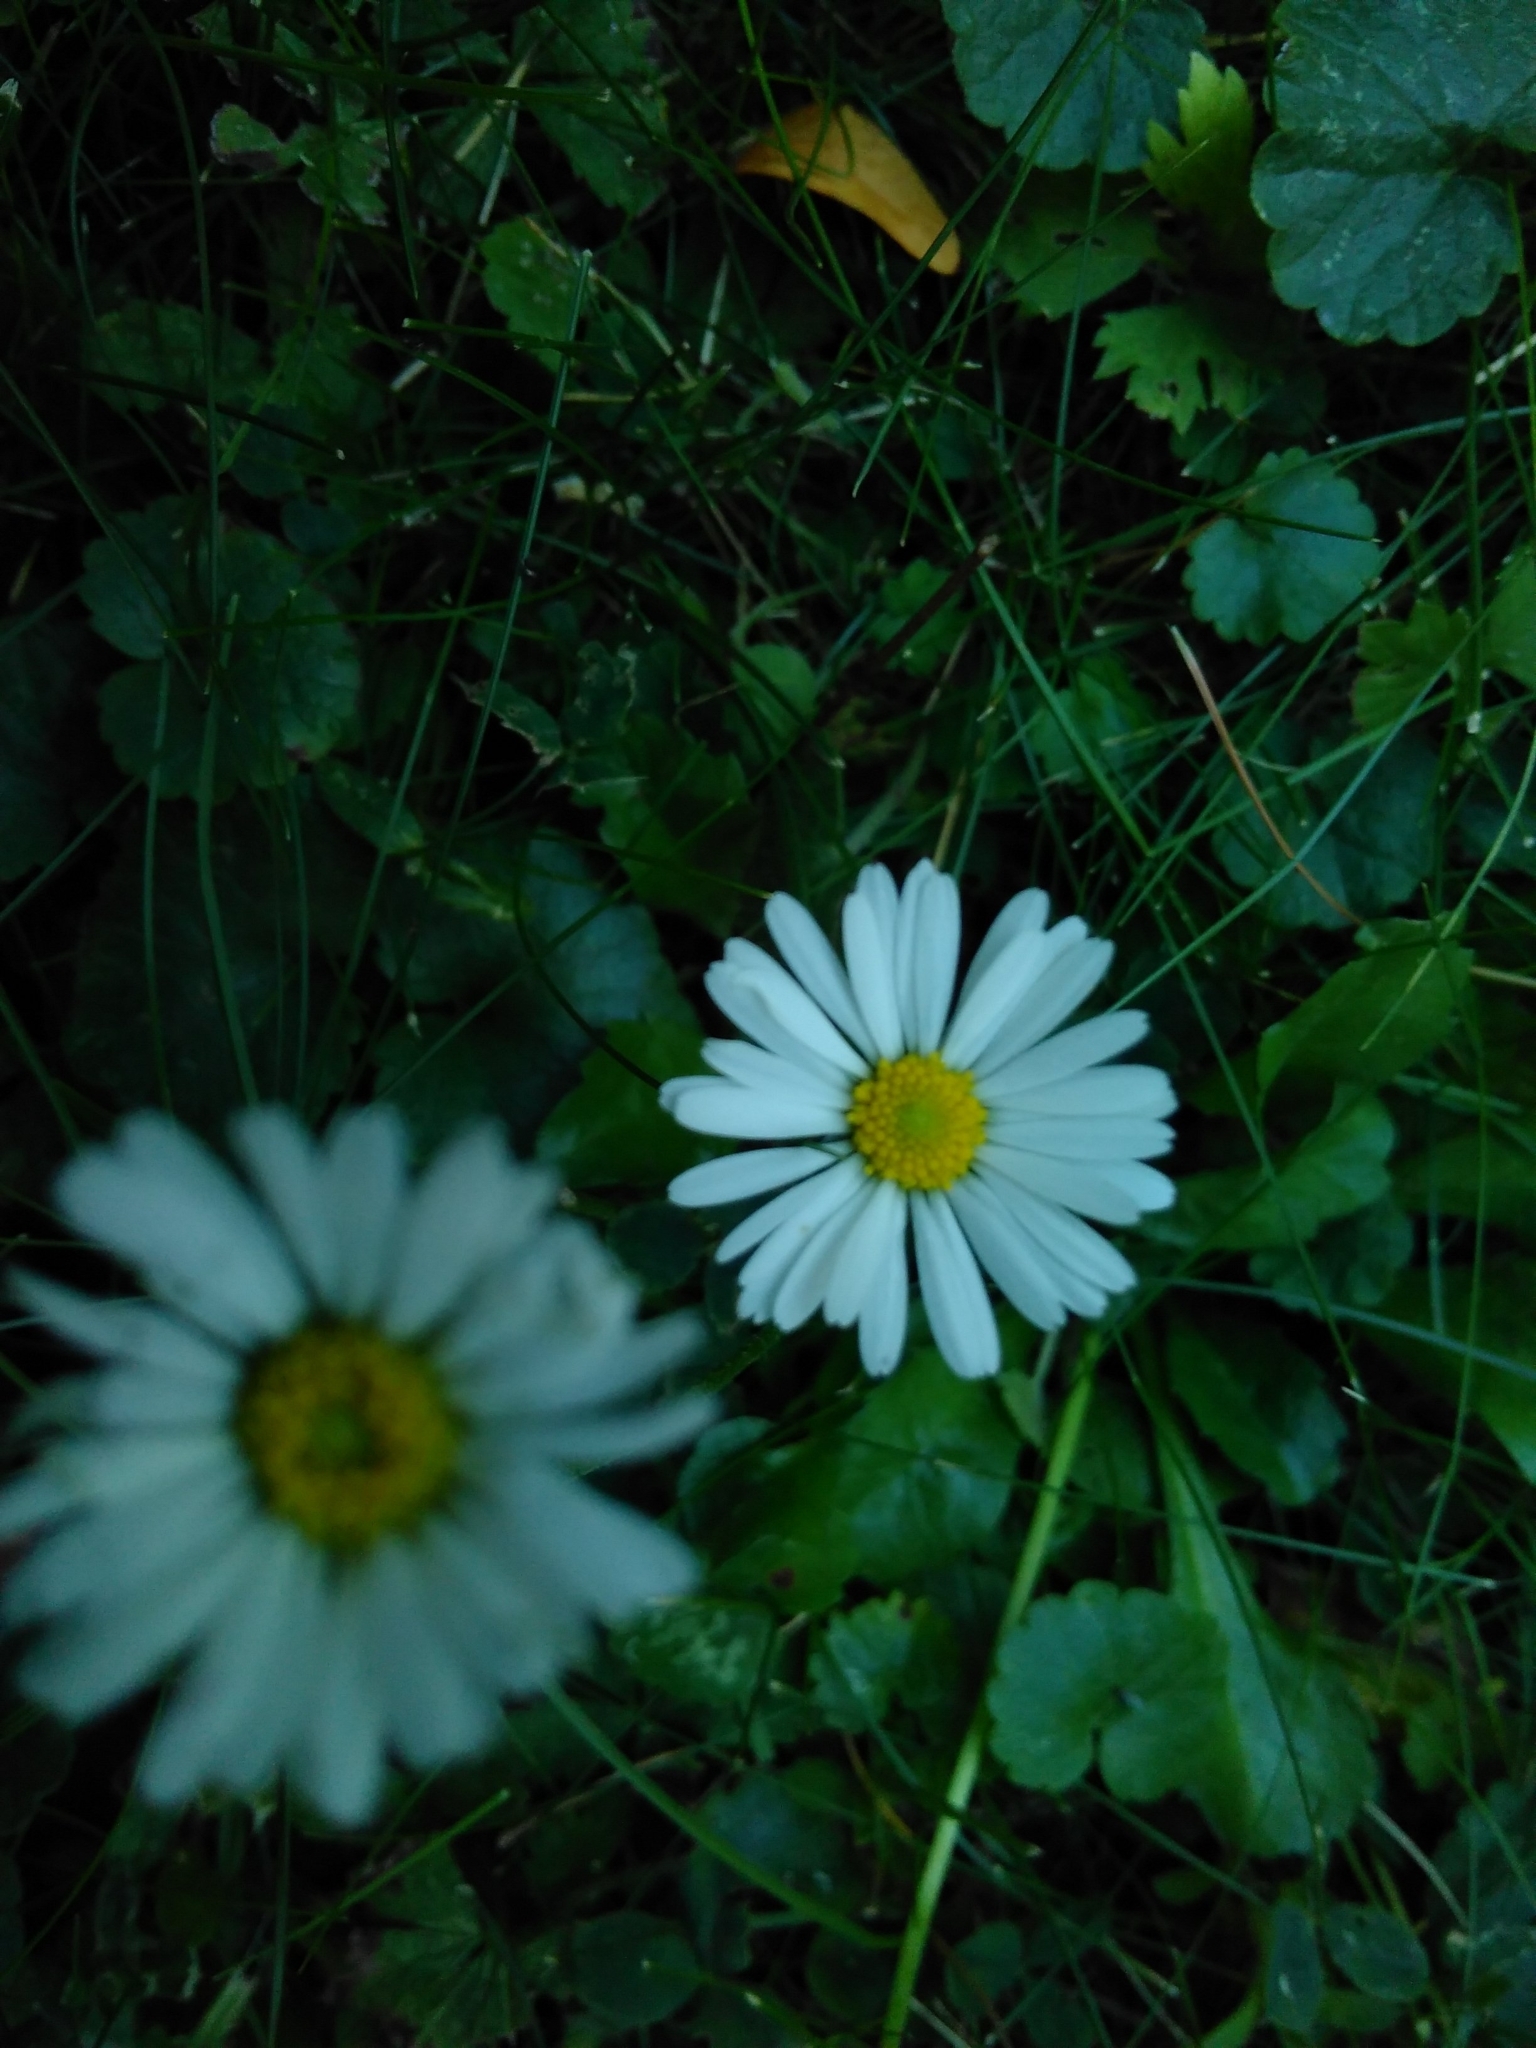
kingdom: Plantae
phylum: Tracheophyta
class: Magnoliopsida
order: Asterales
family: Asteraceae
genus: Bellis
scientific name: Bellis perennis
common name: Lawndaisy
